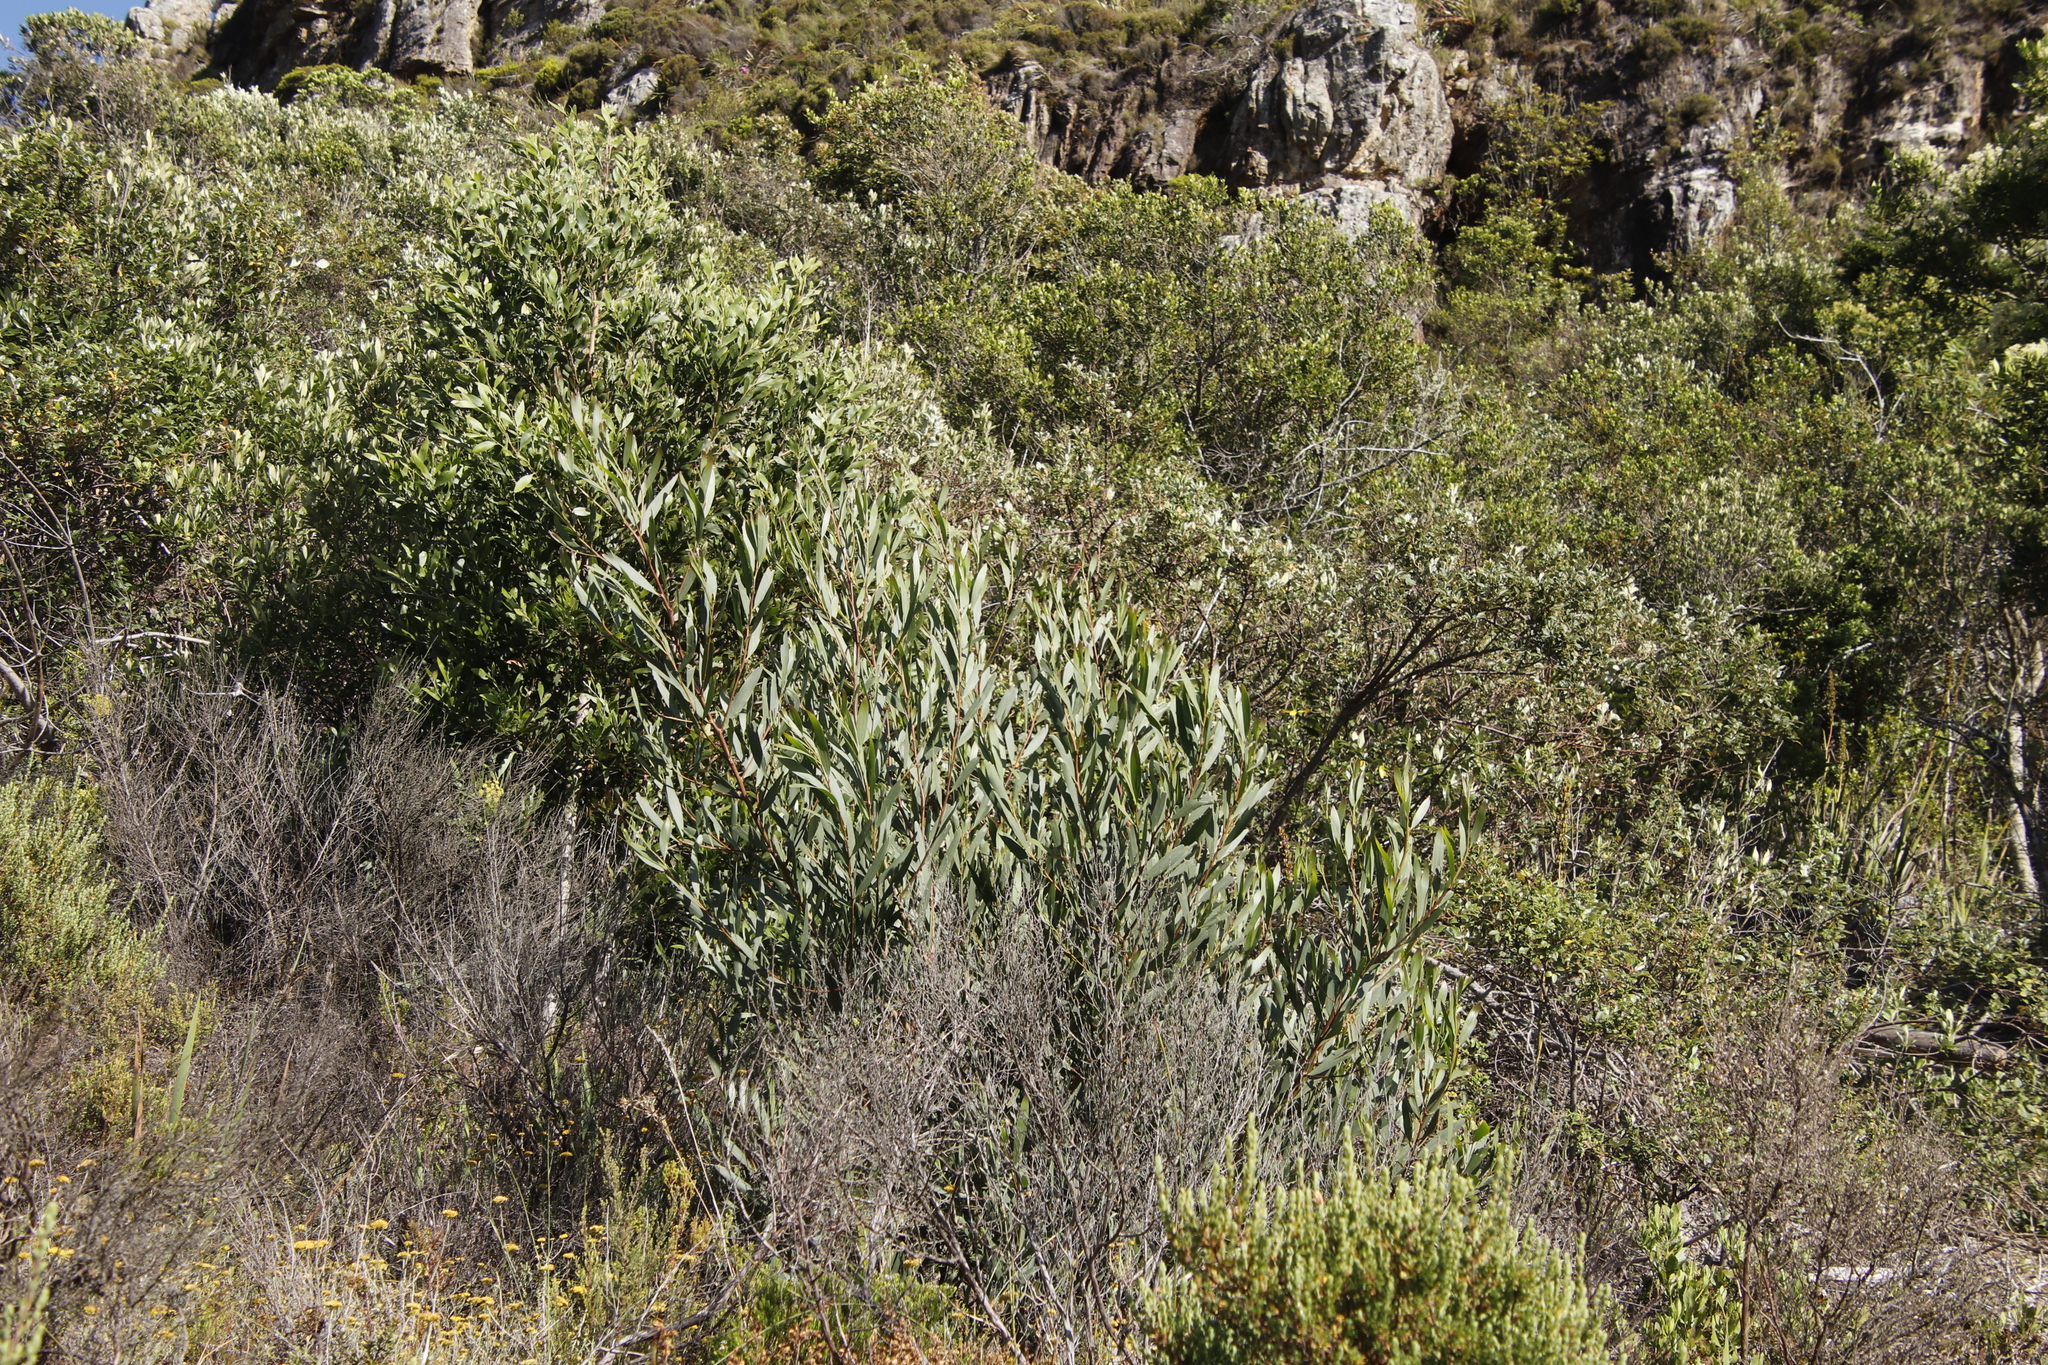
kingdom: Plantae
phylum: Tracheophyta
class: Magnoliopsida
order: Fabales
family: Fabaceae
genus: Acacia
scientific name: Acacia longifolia
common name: Sydney golden wattle
